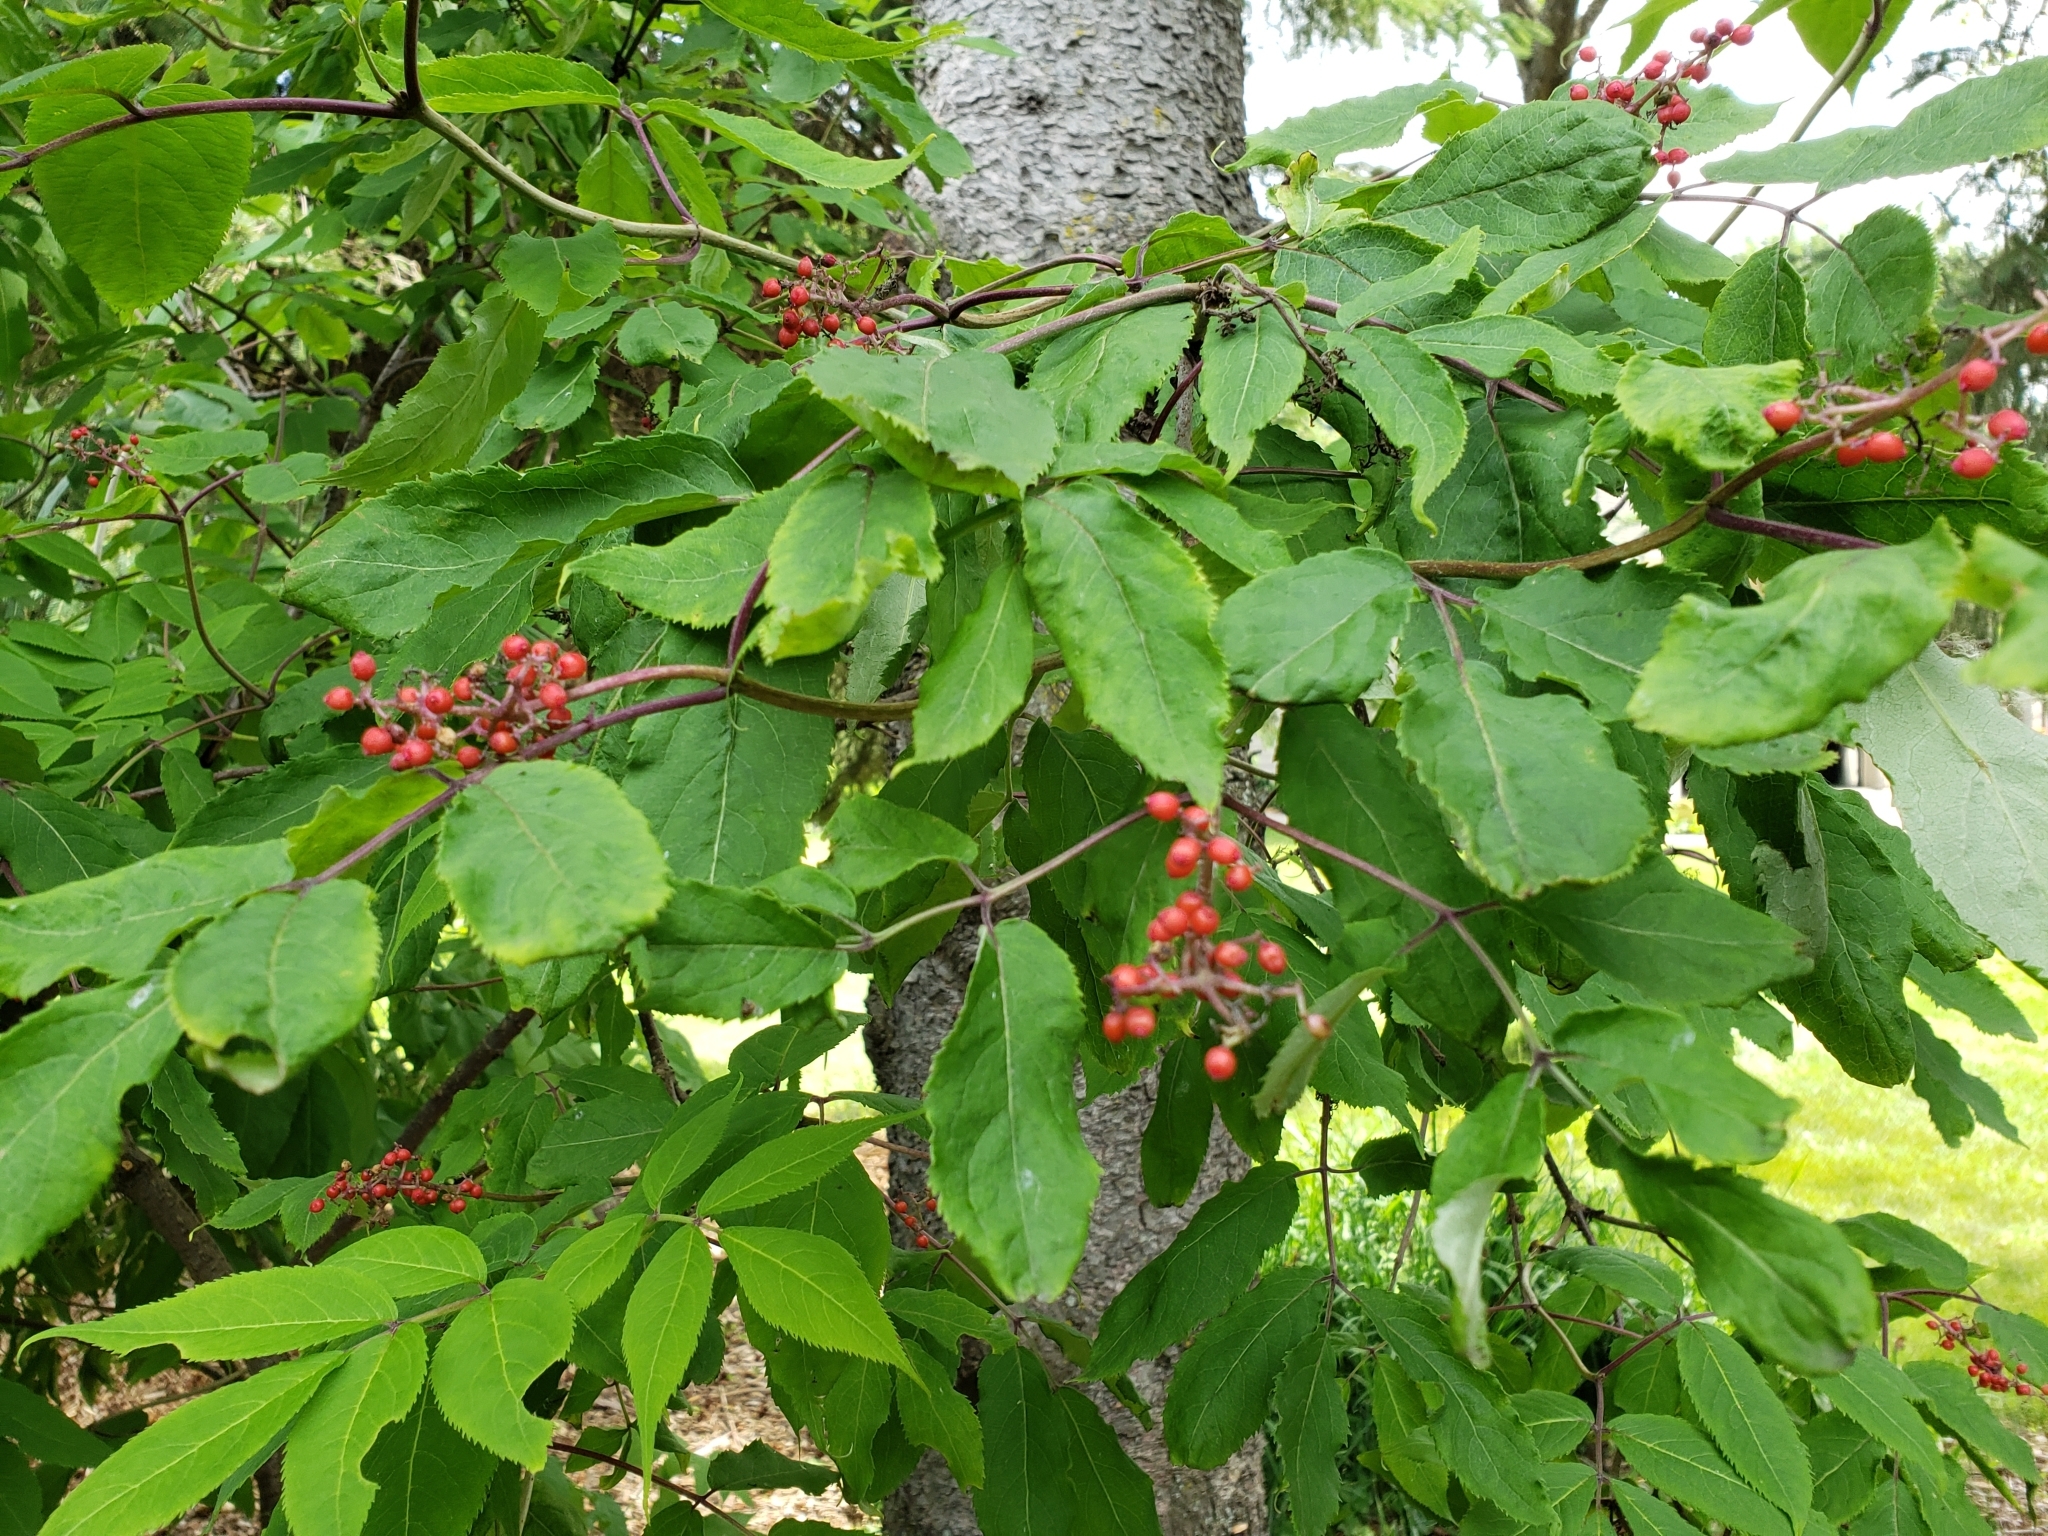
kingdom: Plantae
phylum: Tracheophyta
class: Magnoliopsida
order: Dipsacales
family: Viburnaceae
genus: Sambucus
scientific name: Sambucus racemosa
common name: Red-berried elder
